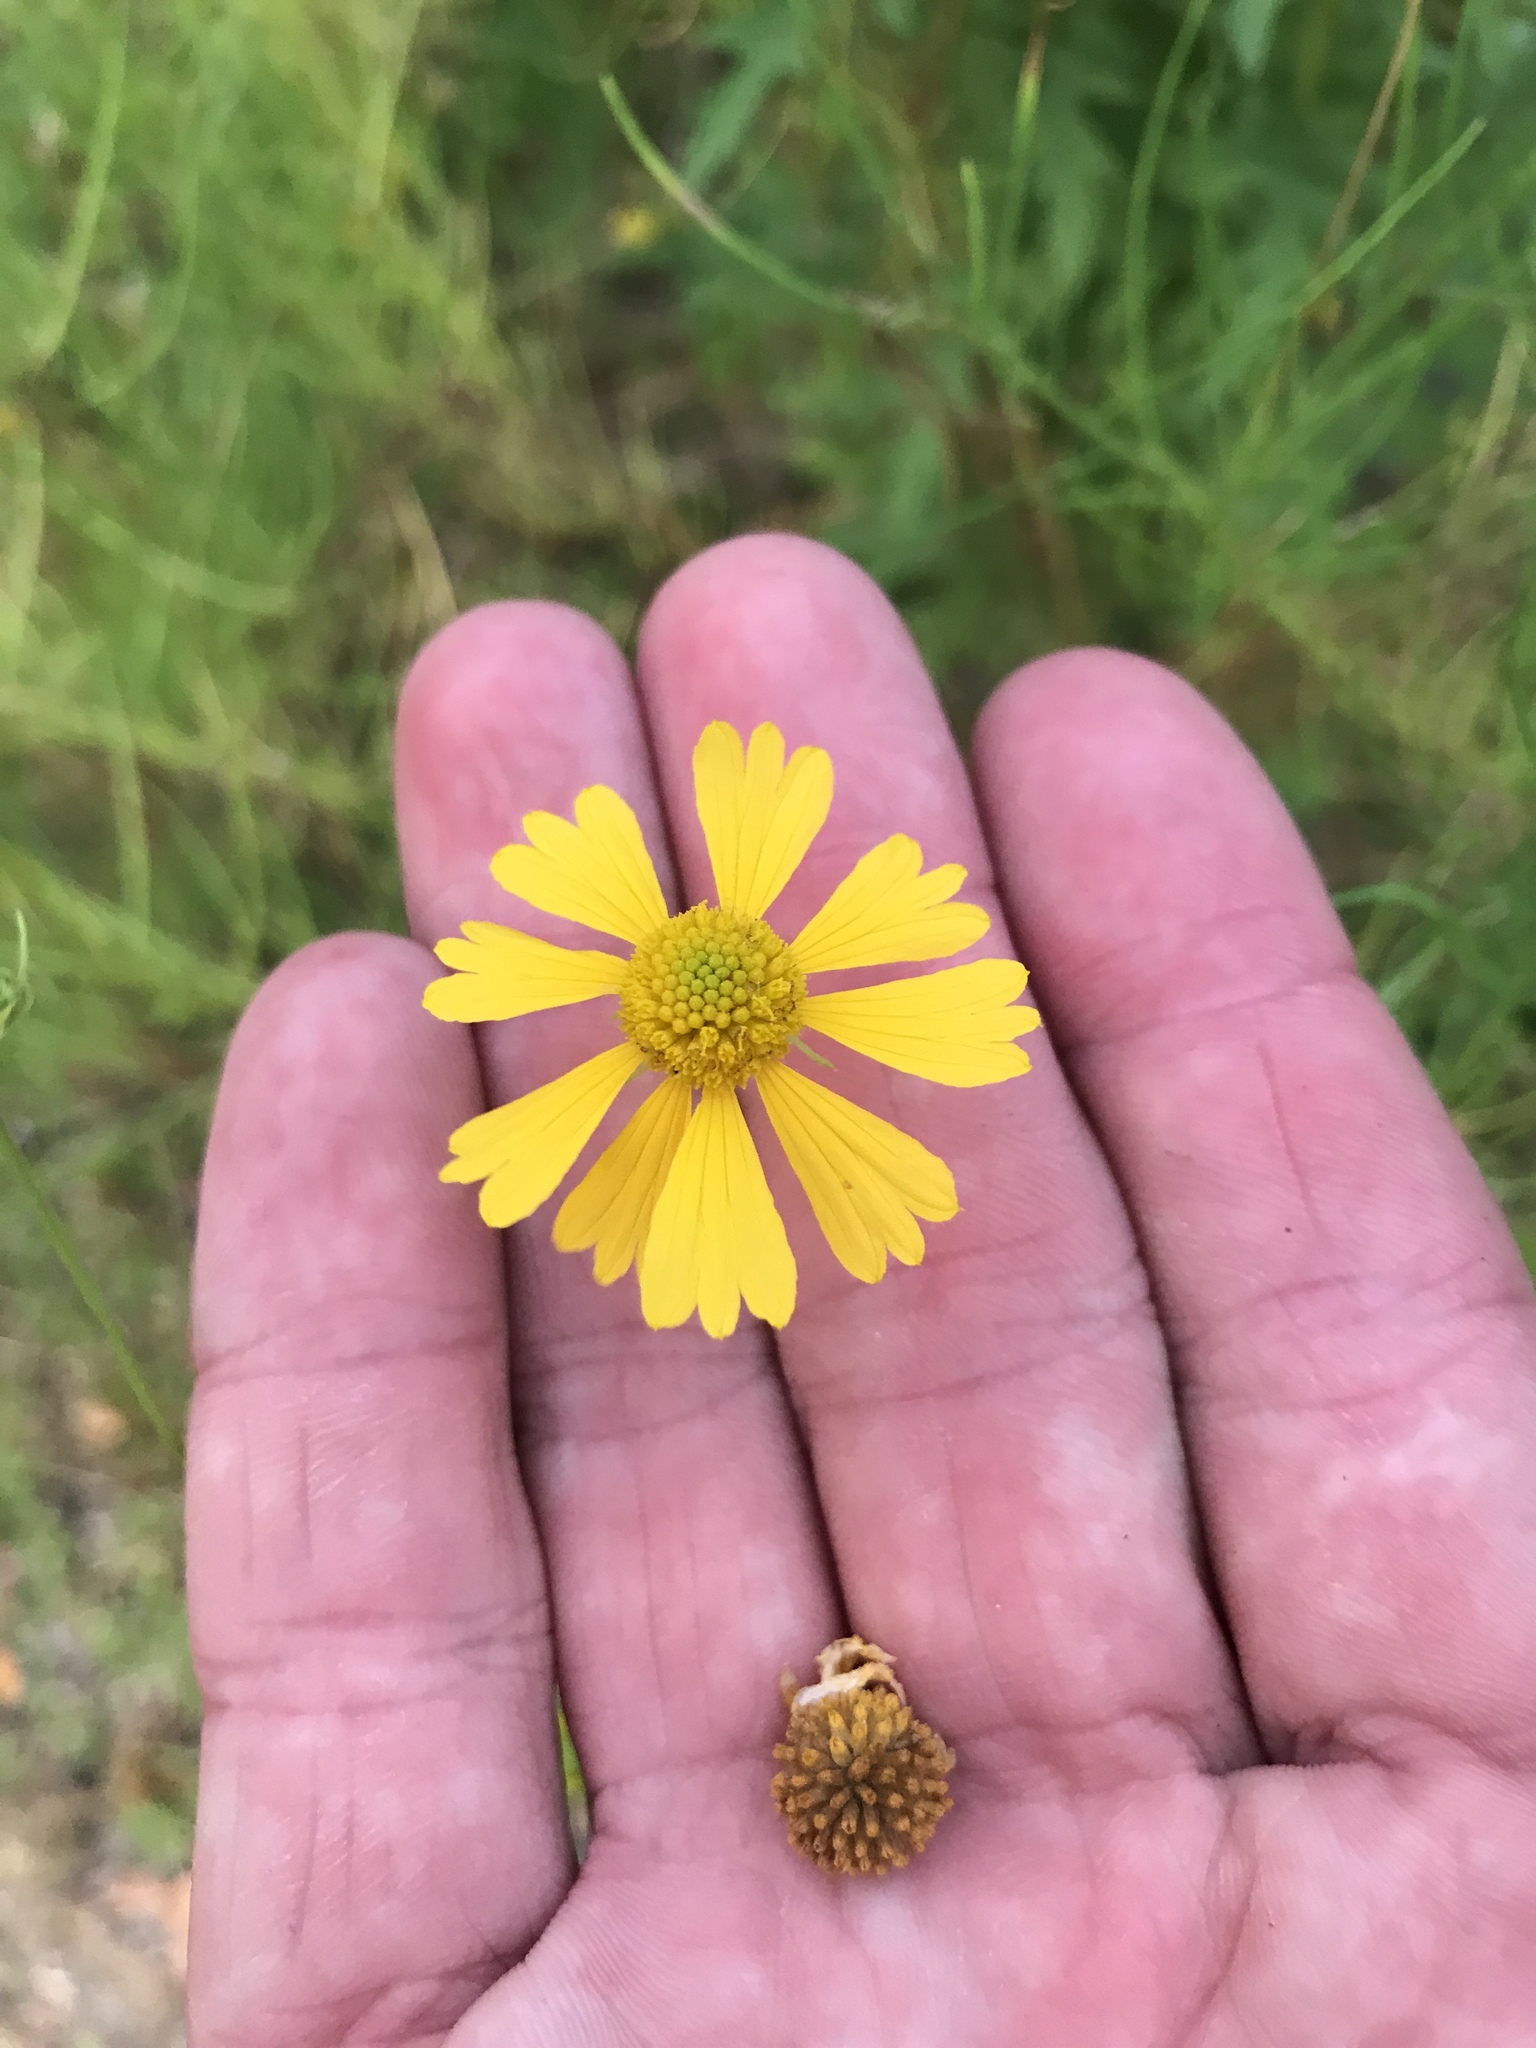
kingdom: Plantae
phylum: Tracheophyta
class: Magnoliopsida
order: Asterales
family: Asteraceae
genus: Helenium
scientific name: Helenium amarum
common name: Bitter sneezeweed
